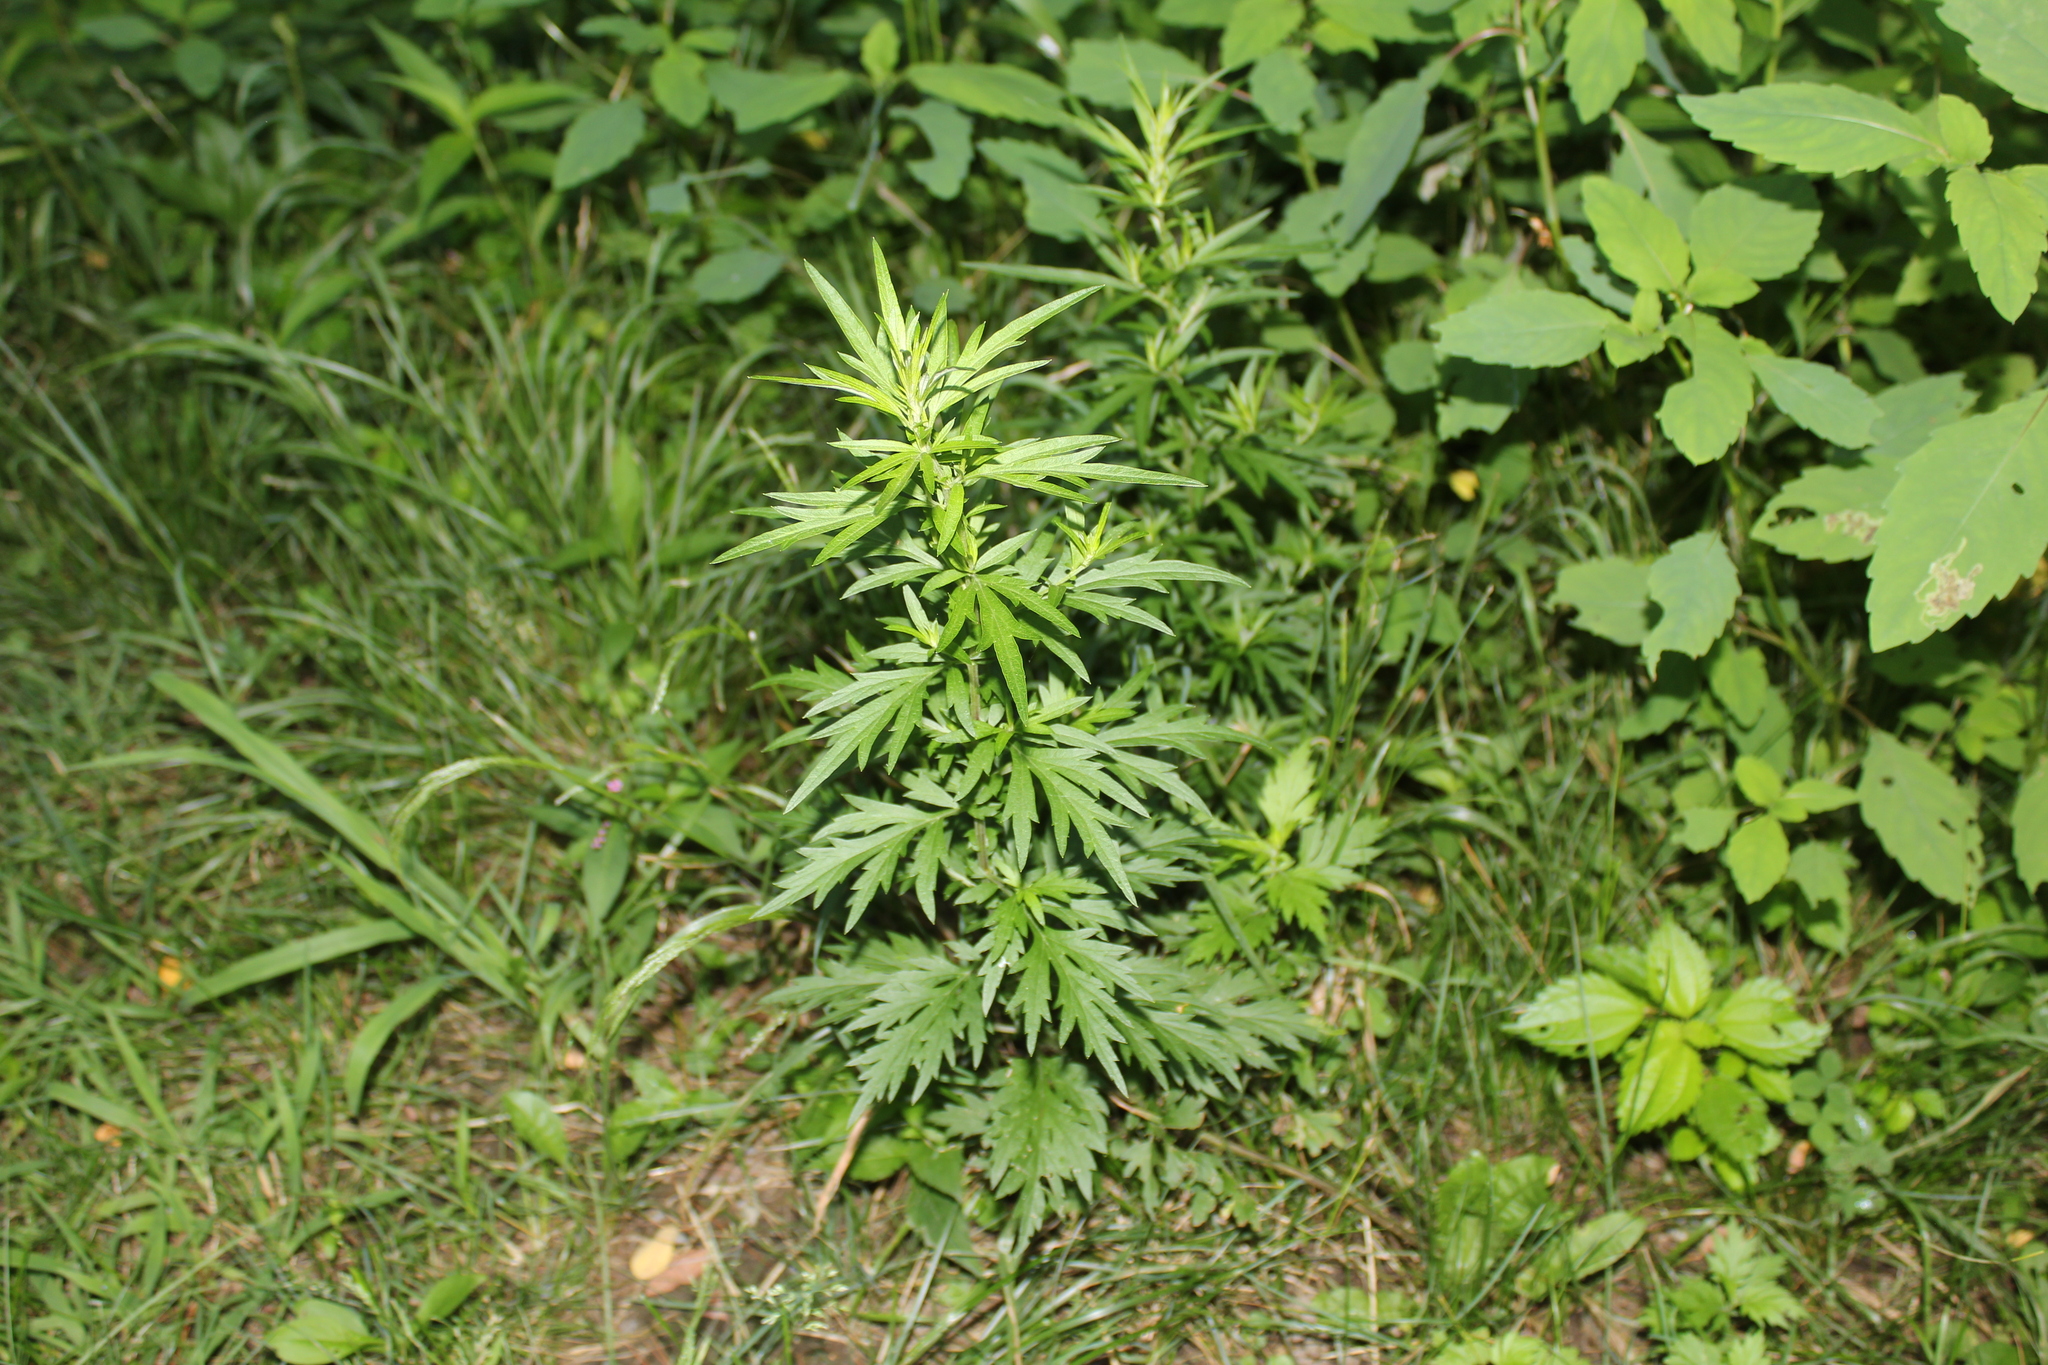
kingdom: Plantae
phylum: Tracheophyta
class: Magnoliopsida
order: Asterales
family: Asteraceae
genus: Artemisia
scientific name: Artemisia vulgaris
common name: Mugwort
